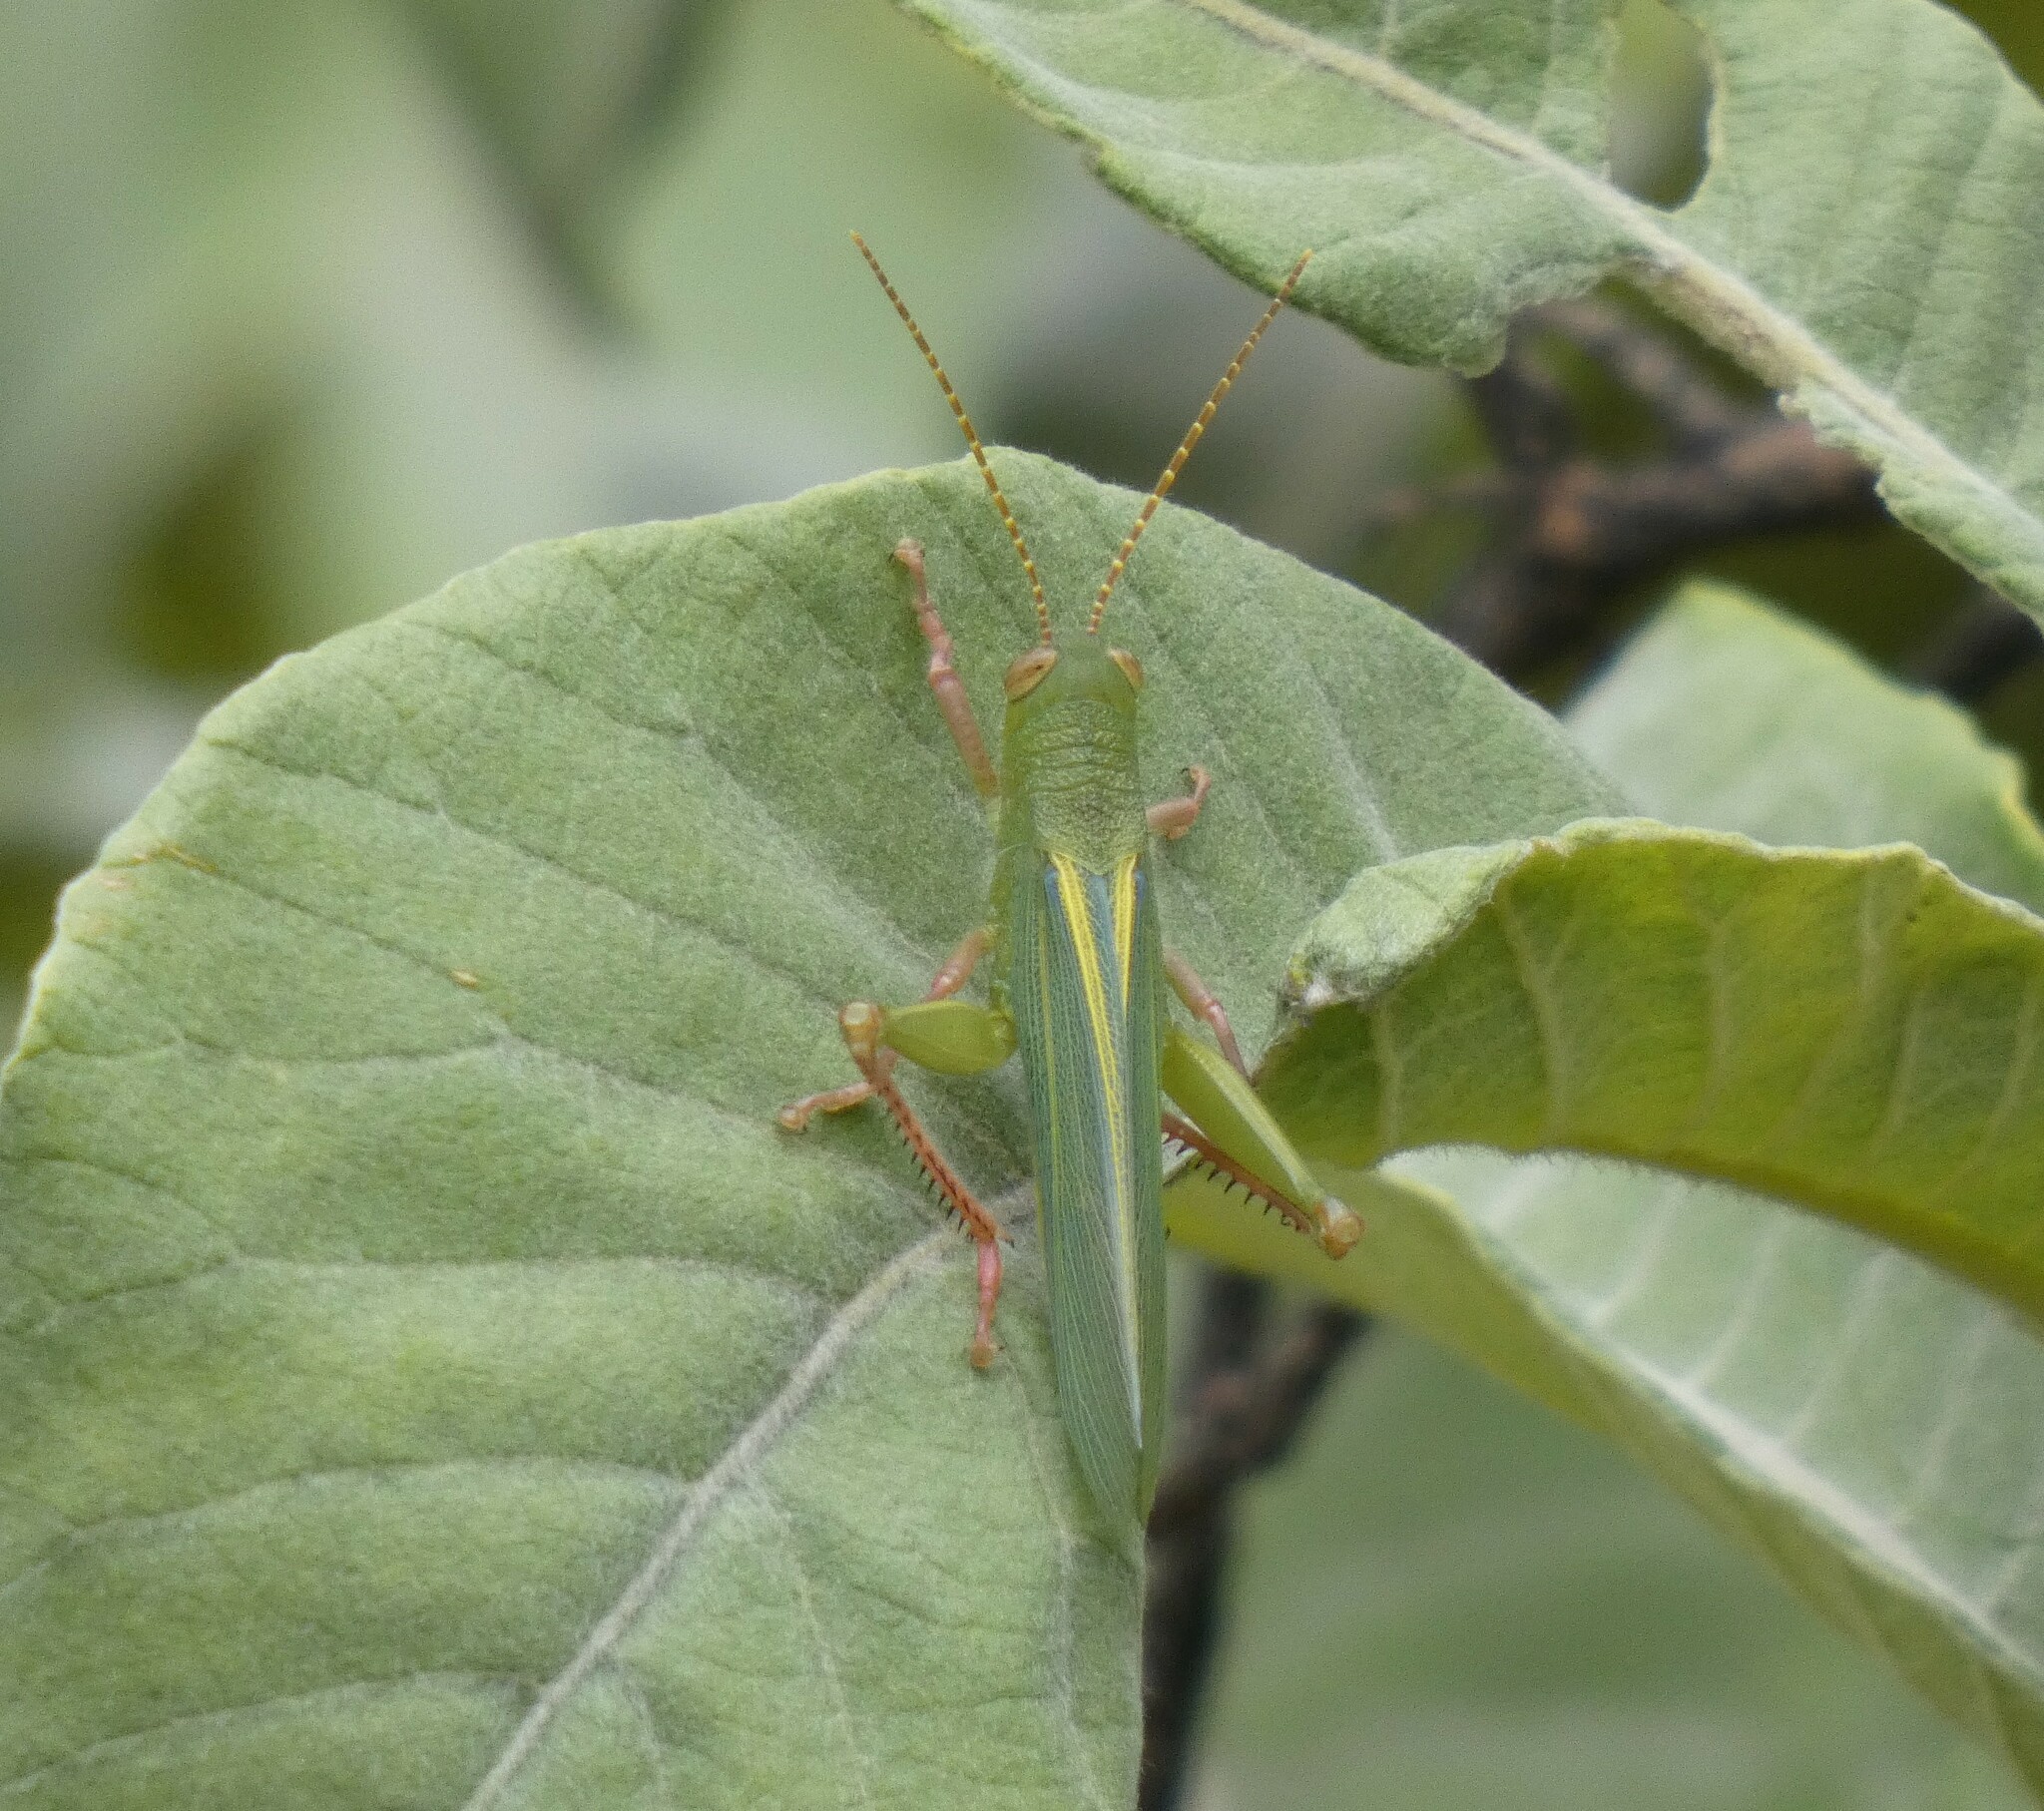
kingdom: Animalia
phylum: Arthropoda
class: Insecta
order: Orthoptera
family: Romaleidae
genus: Zoniopoda
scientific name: Zoniopoda hempeli
